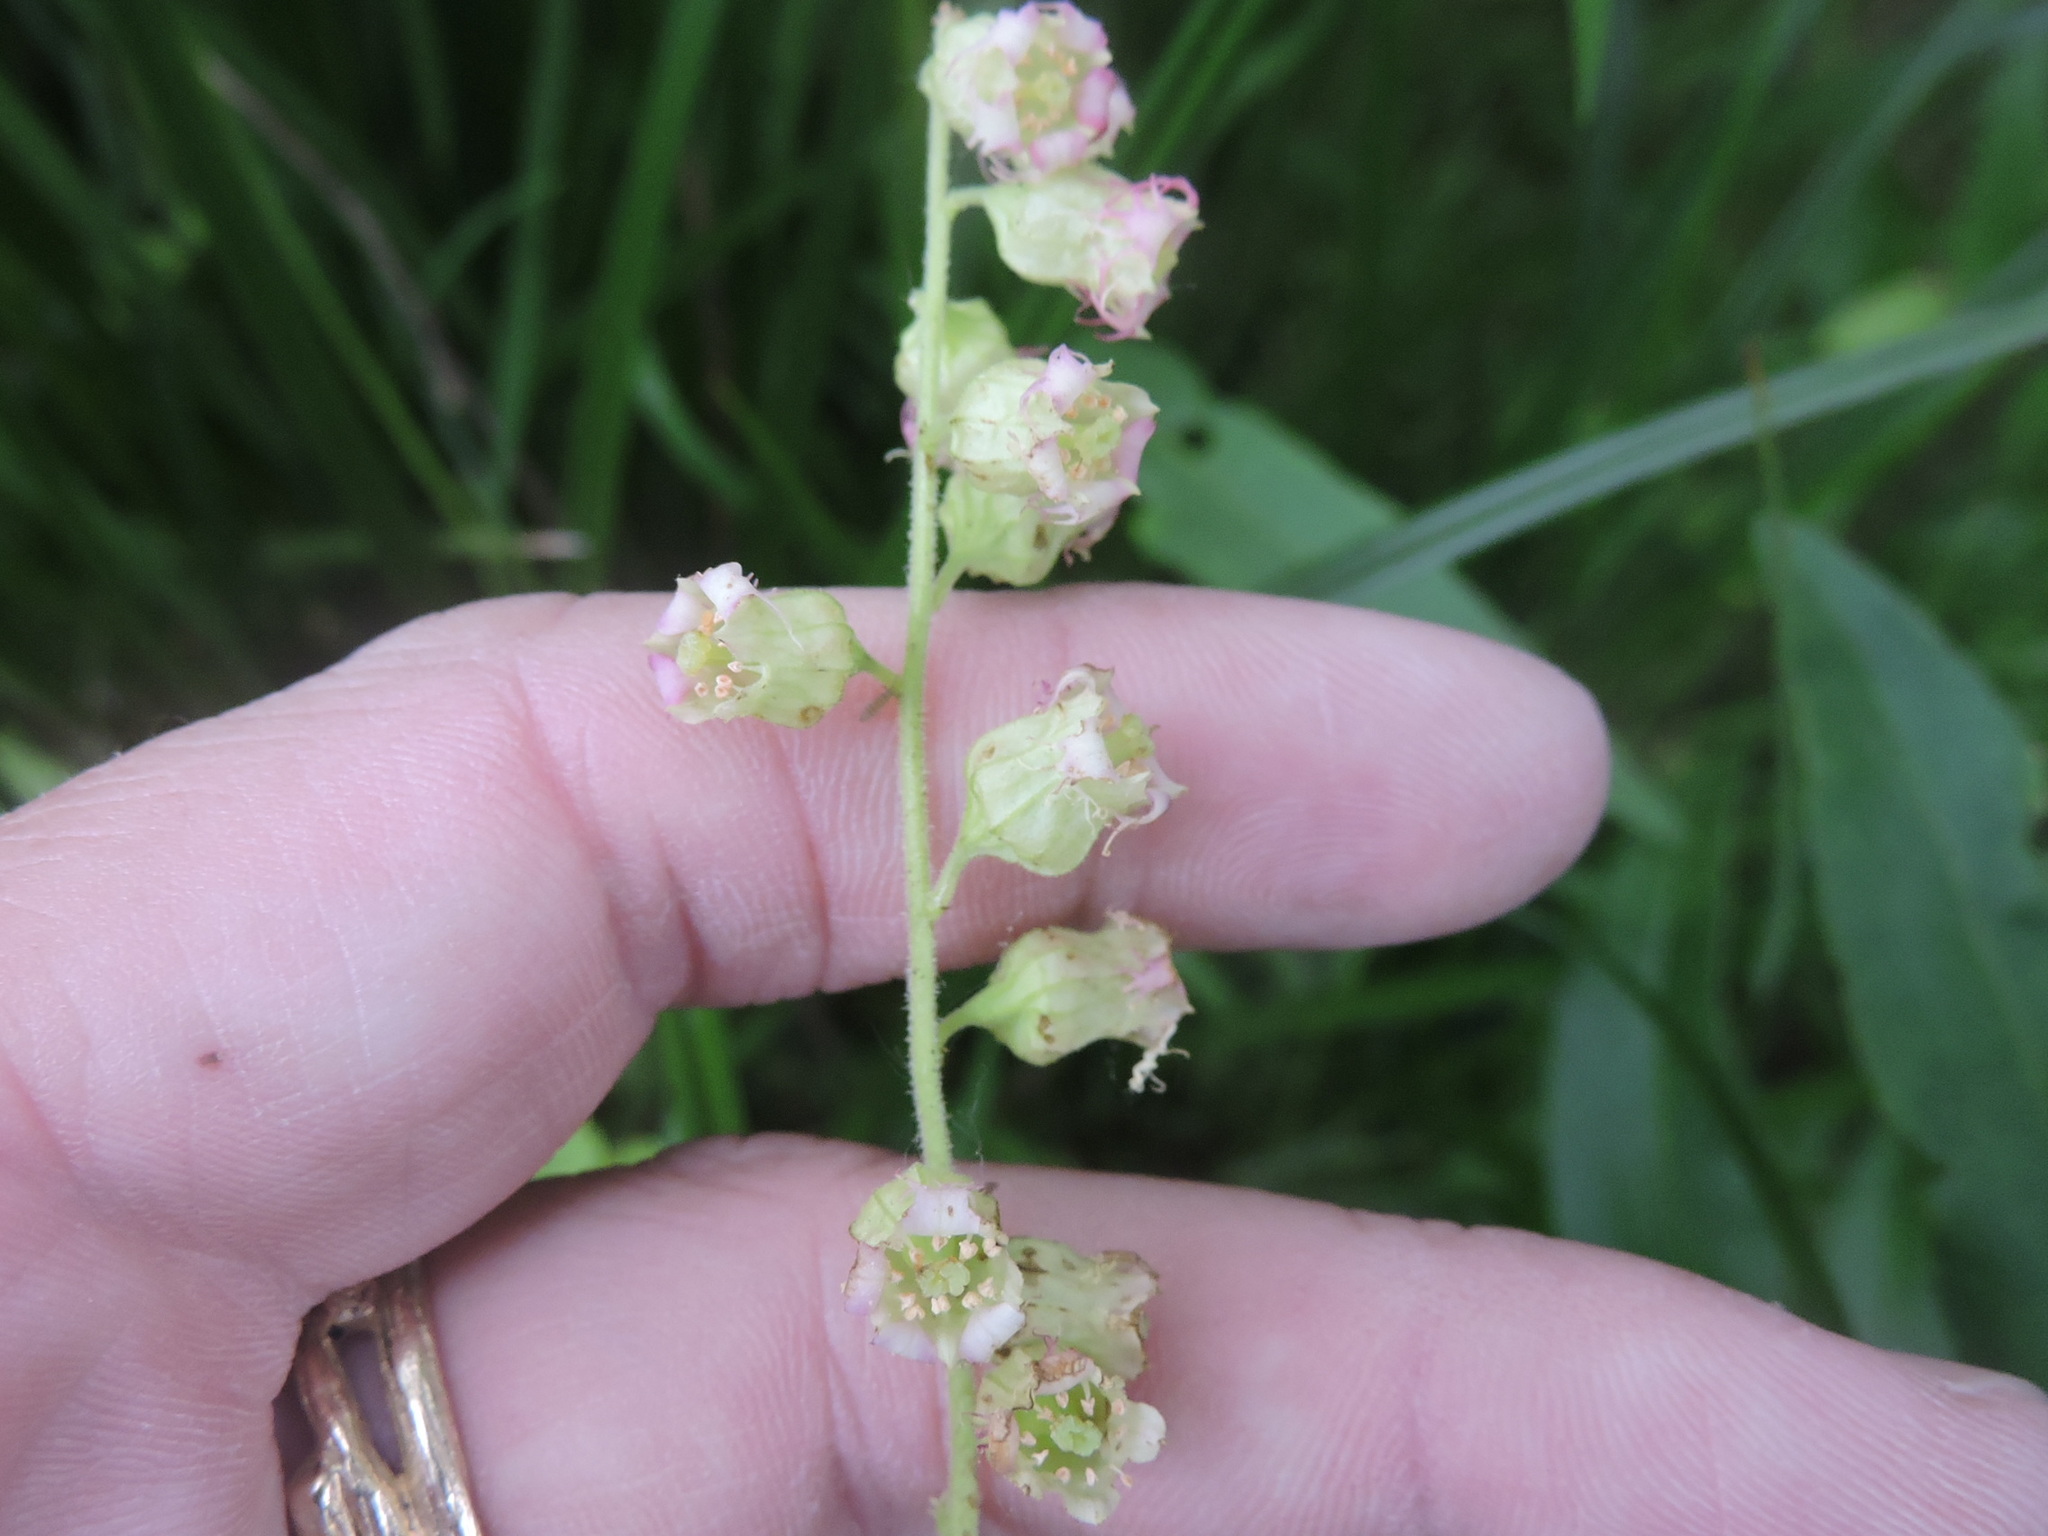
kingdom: Plantae
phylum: Tracheophyta
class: Magnoliopsida
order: Saxifragales
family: Saxifragaceae
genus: Tellima
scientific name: Tellima grandiflora
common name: Fringecups
